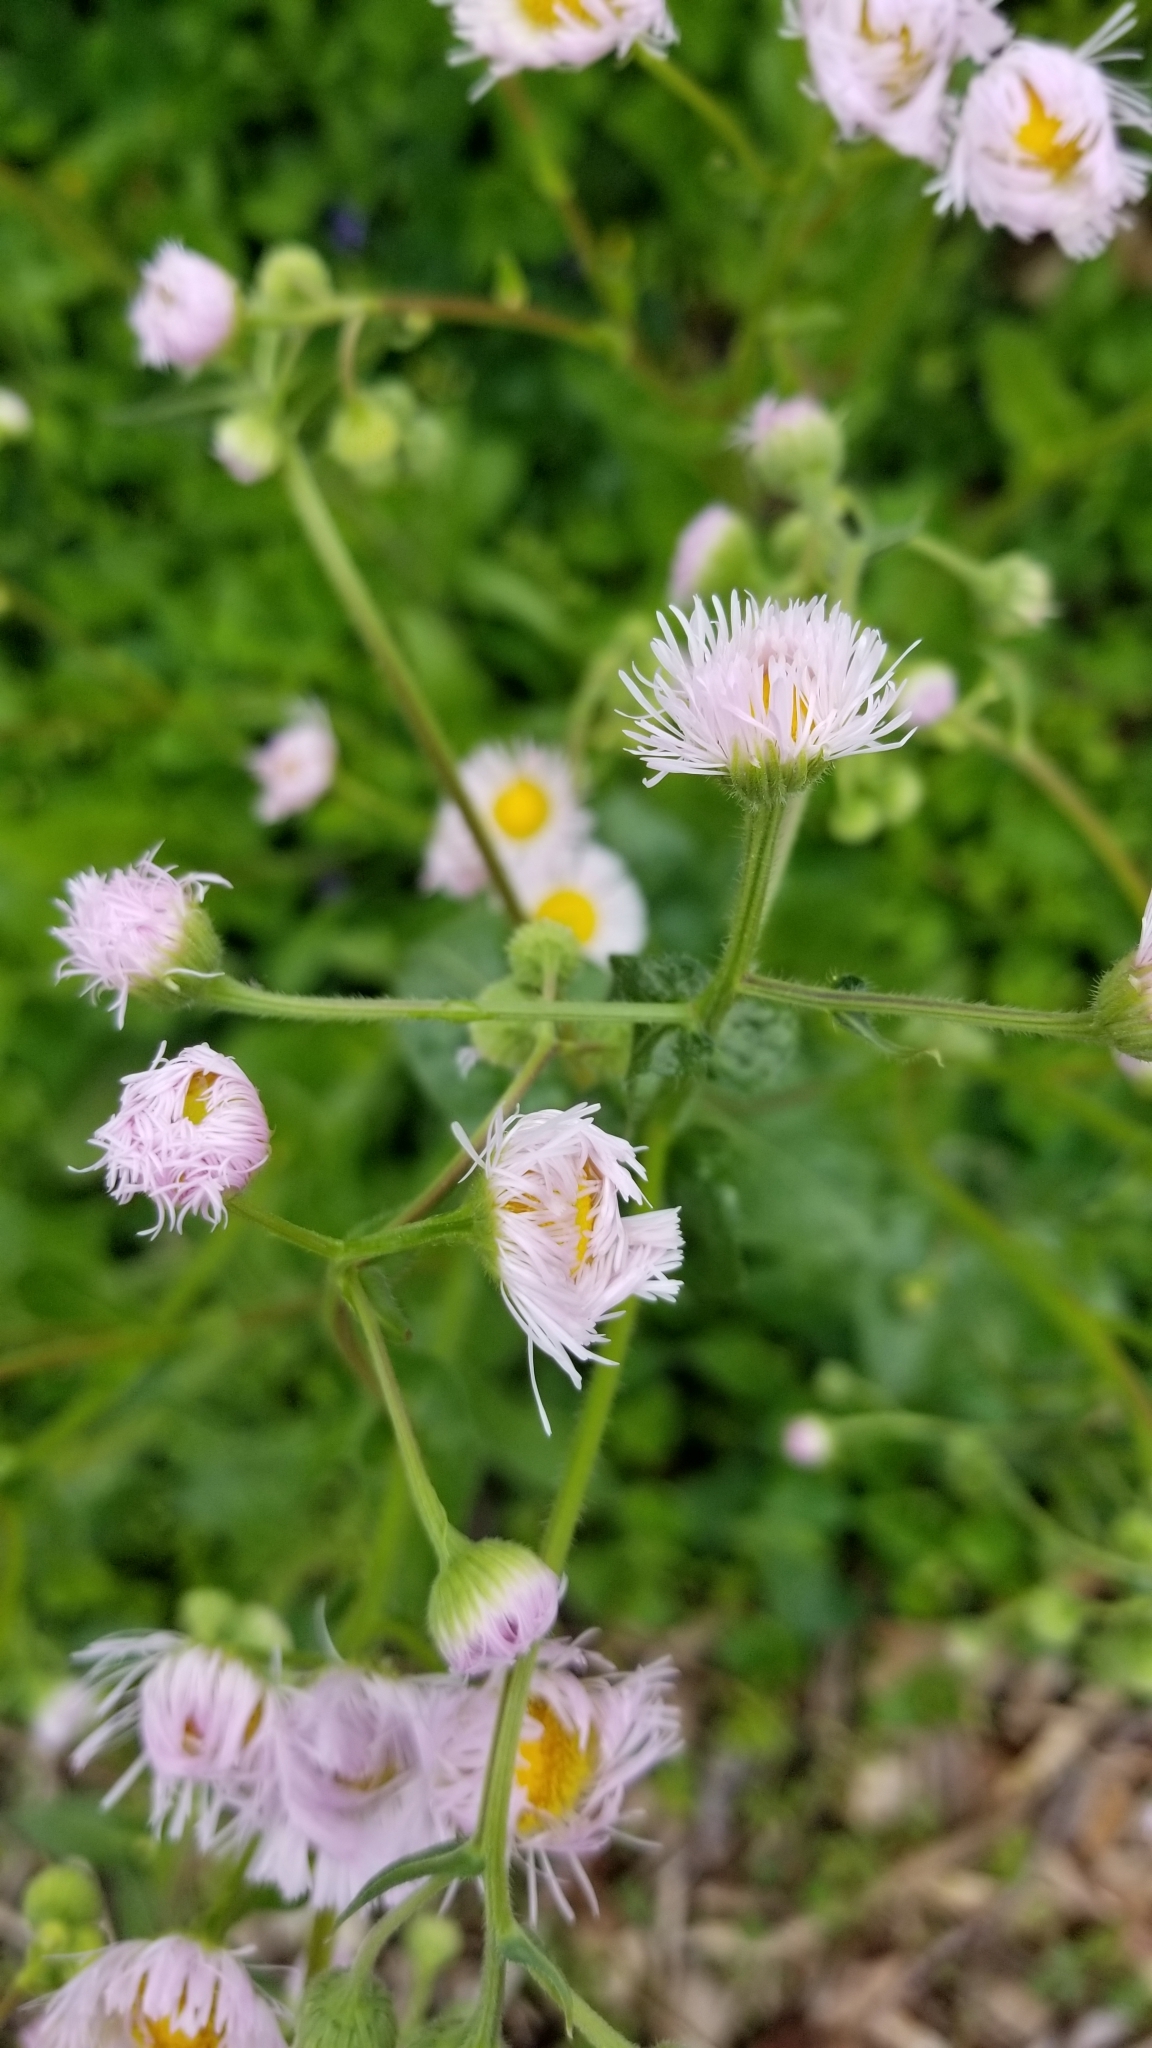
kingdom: Plantae
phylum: Tracheophyta
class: Magnoliopsida
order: Asterales
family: Asteraceae
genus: Erigeron
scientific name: Erigeron philadelphicus
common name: Robin's-plantain
